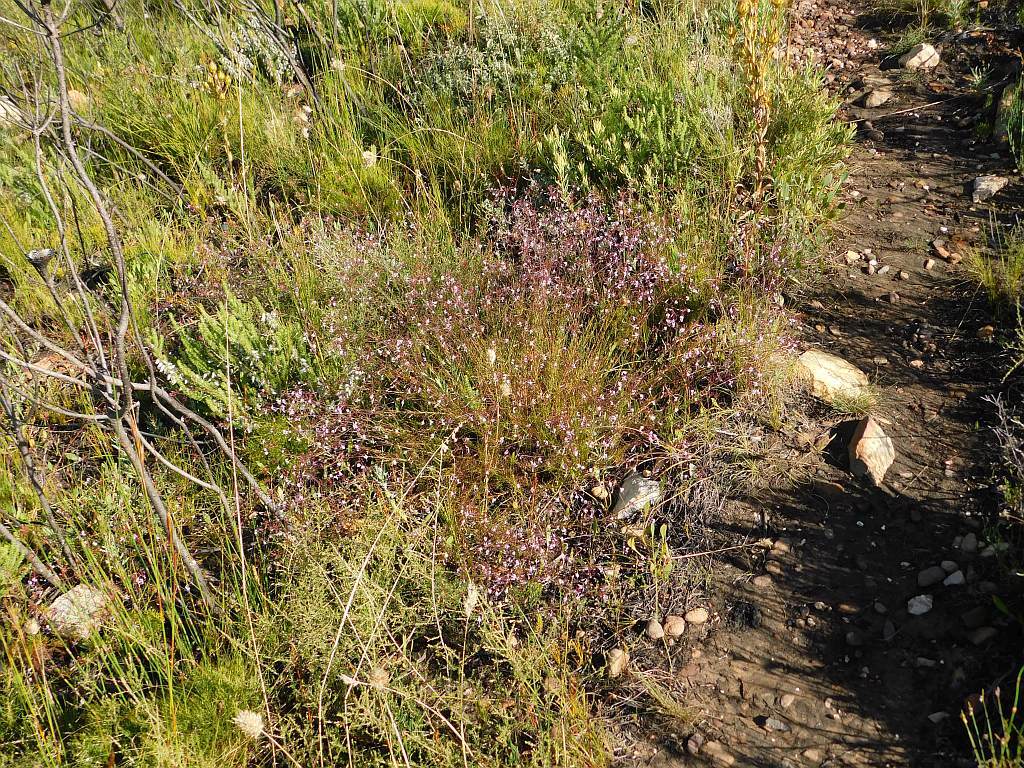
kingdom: Plantae
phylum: Tracheophyta
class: Magnoliopsida
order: Asterales
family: Campanulaceae
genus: Prismatocarpus
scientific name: Prismatocarpus diffusus
